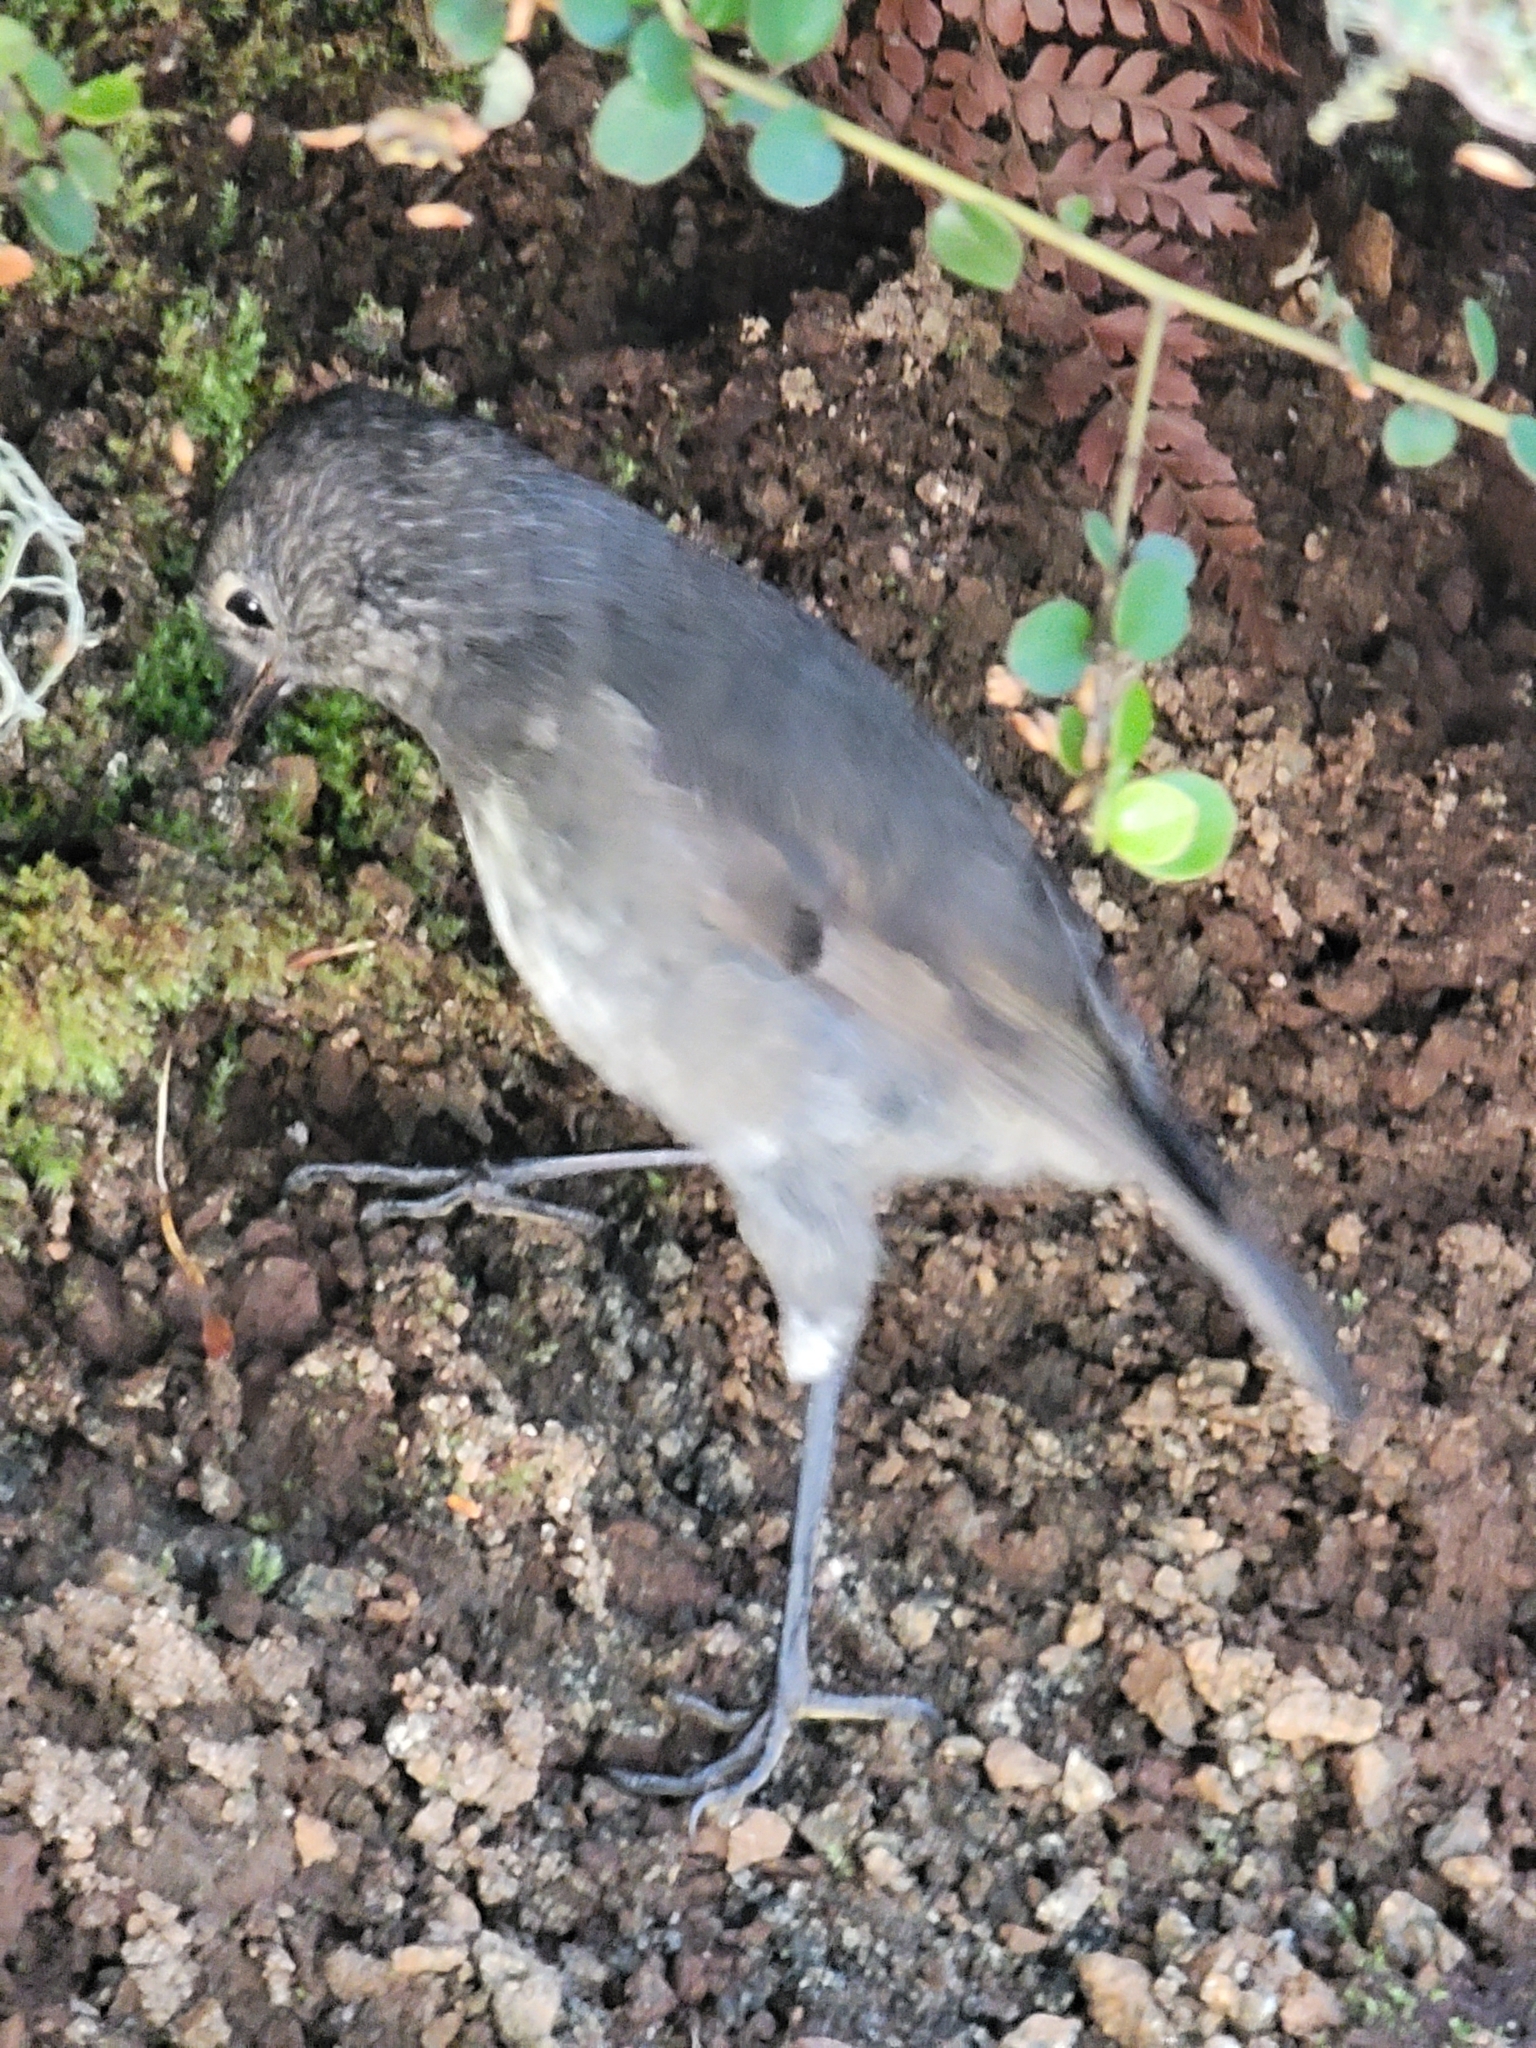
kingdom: Animalia
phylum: Chordata
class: Aves
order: Passeriformes
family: Petroicidae
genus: Petroica
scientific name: Petroica australis
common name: New zealand robin
